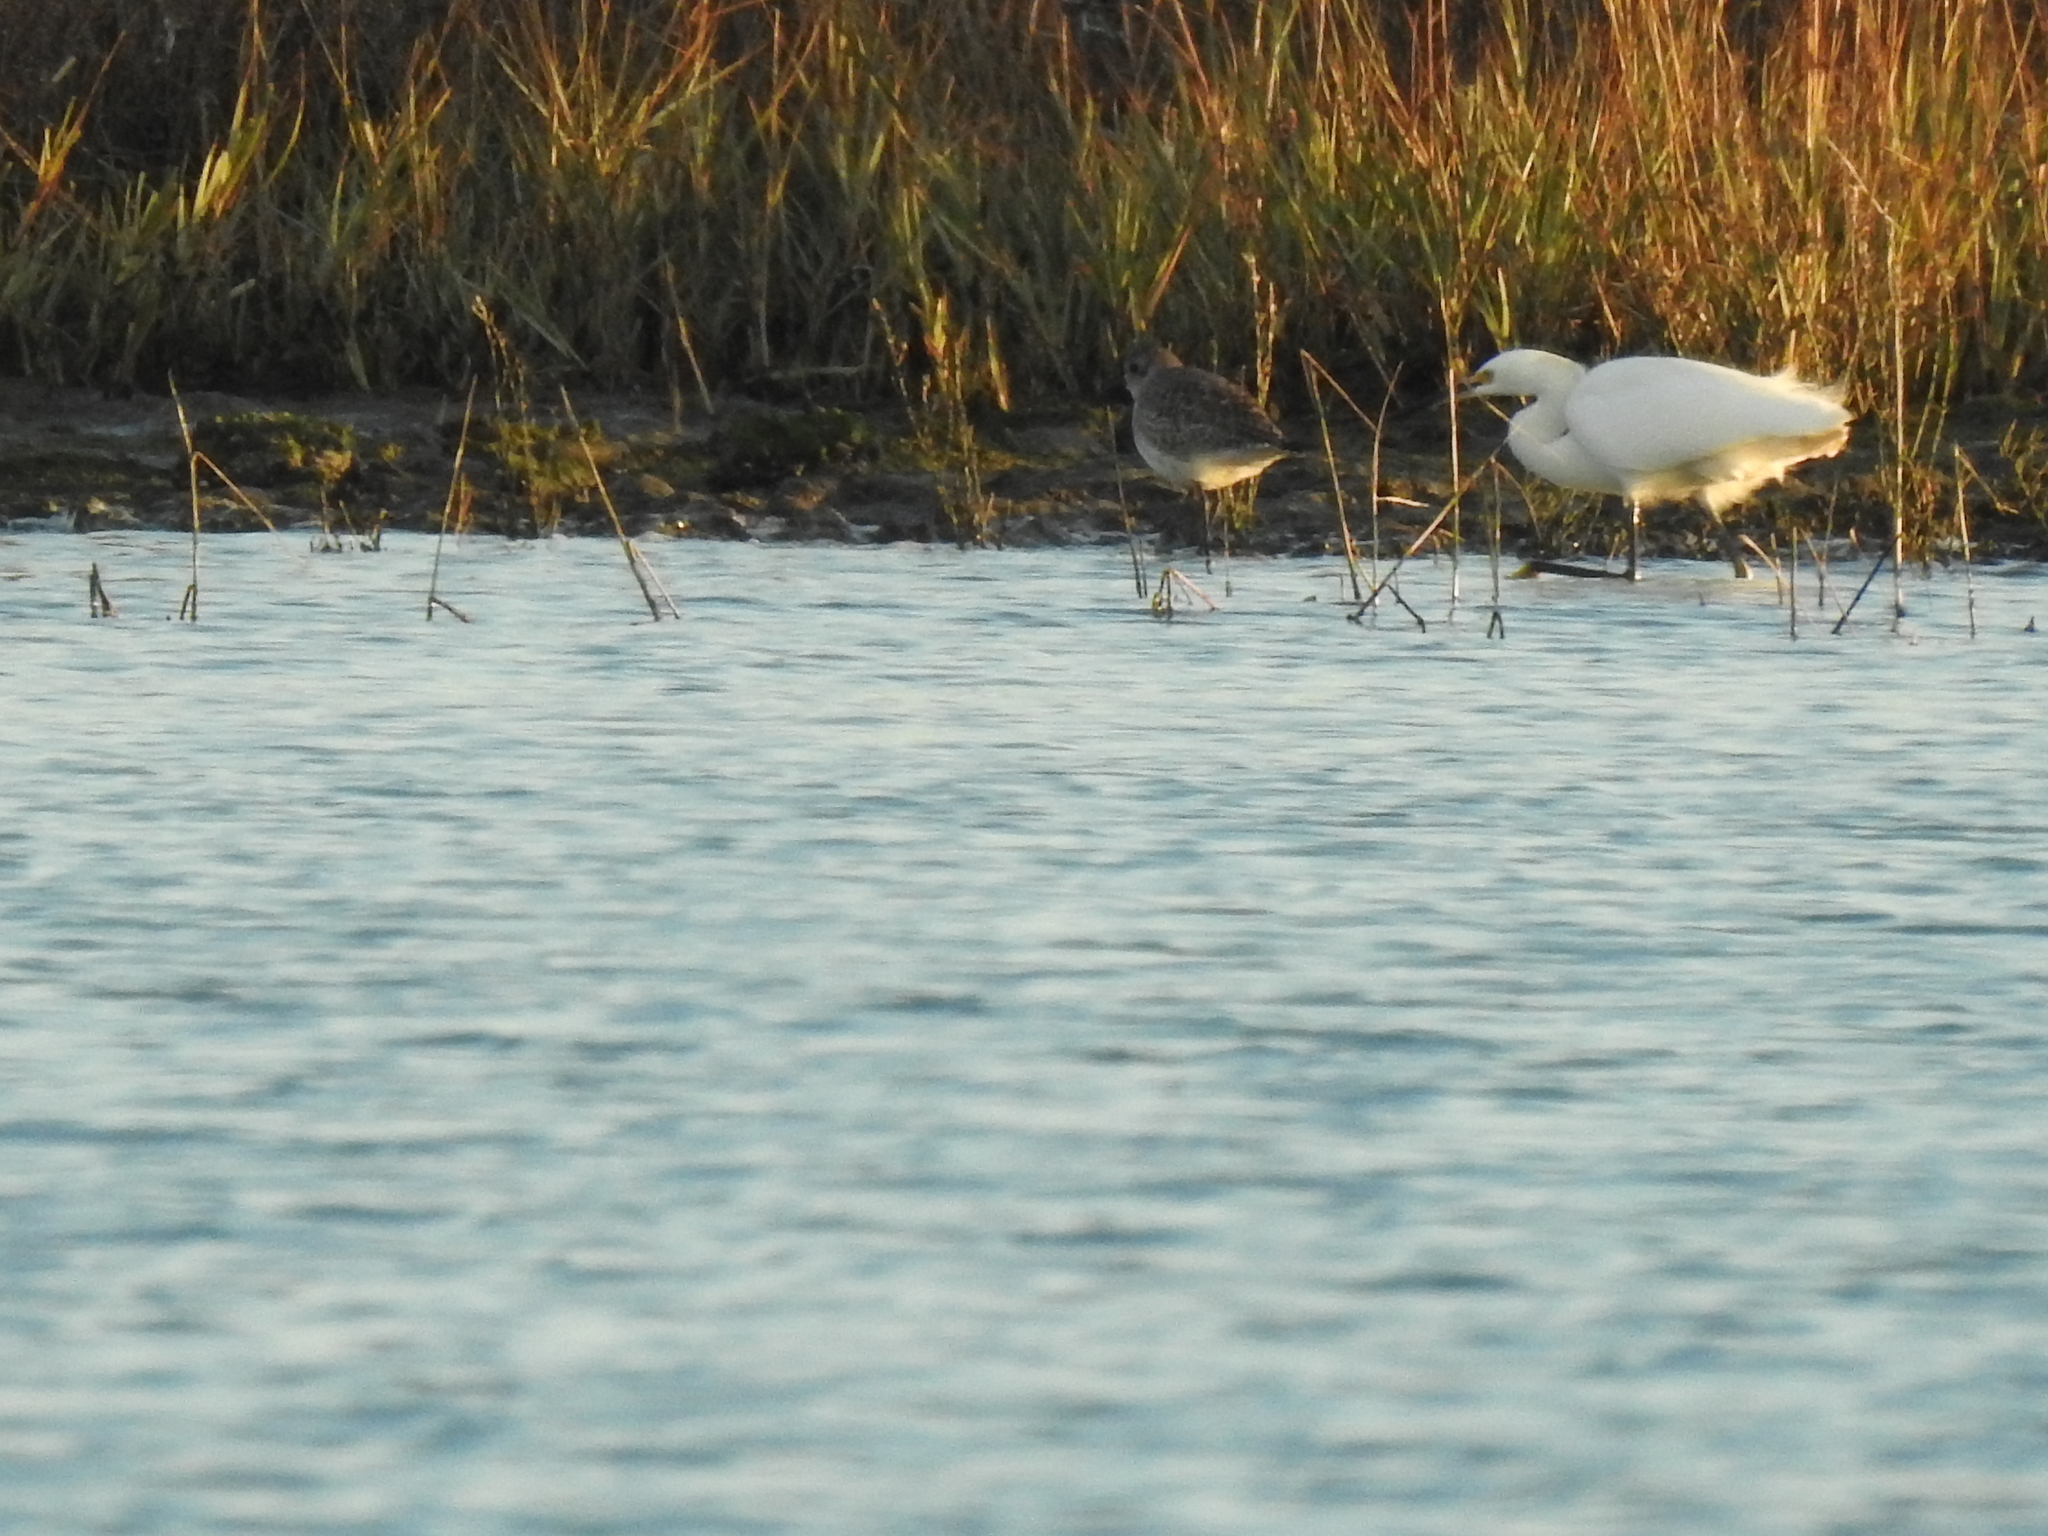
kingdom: Animalia
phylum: Chordata
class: Aves
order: Charadriiformes
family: Charadriidae
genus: Pluvialis
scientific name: Pluvialis squatarola
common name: Grey plover
